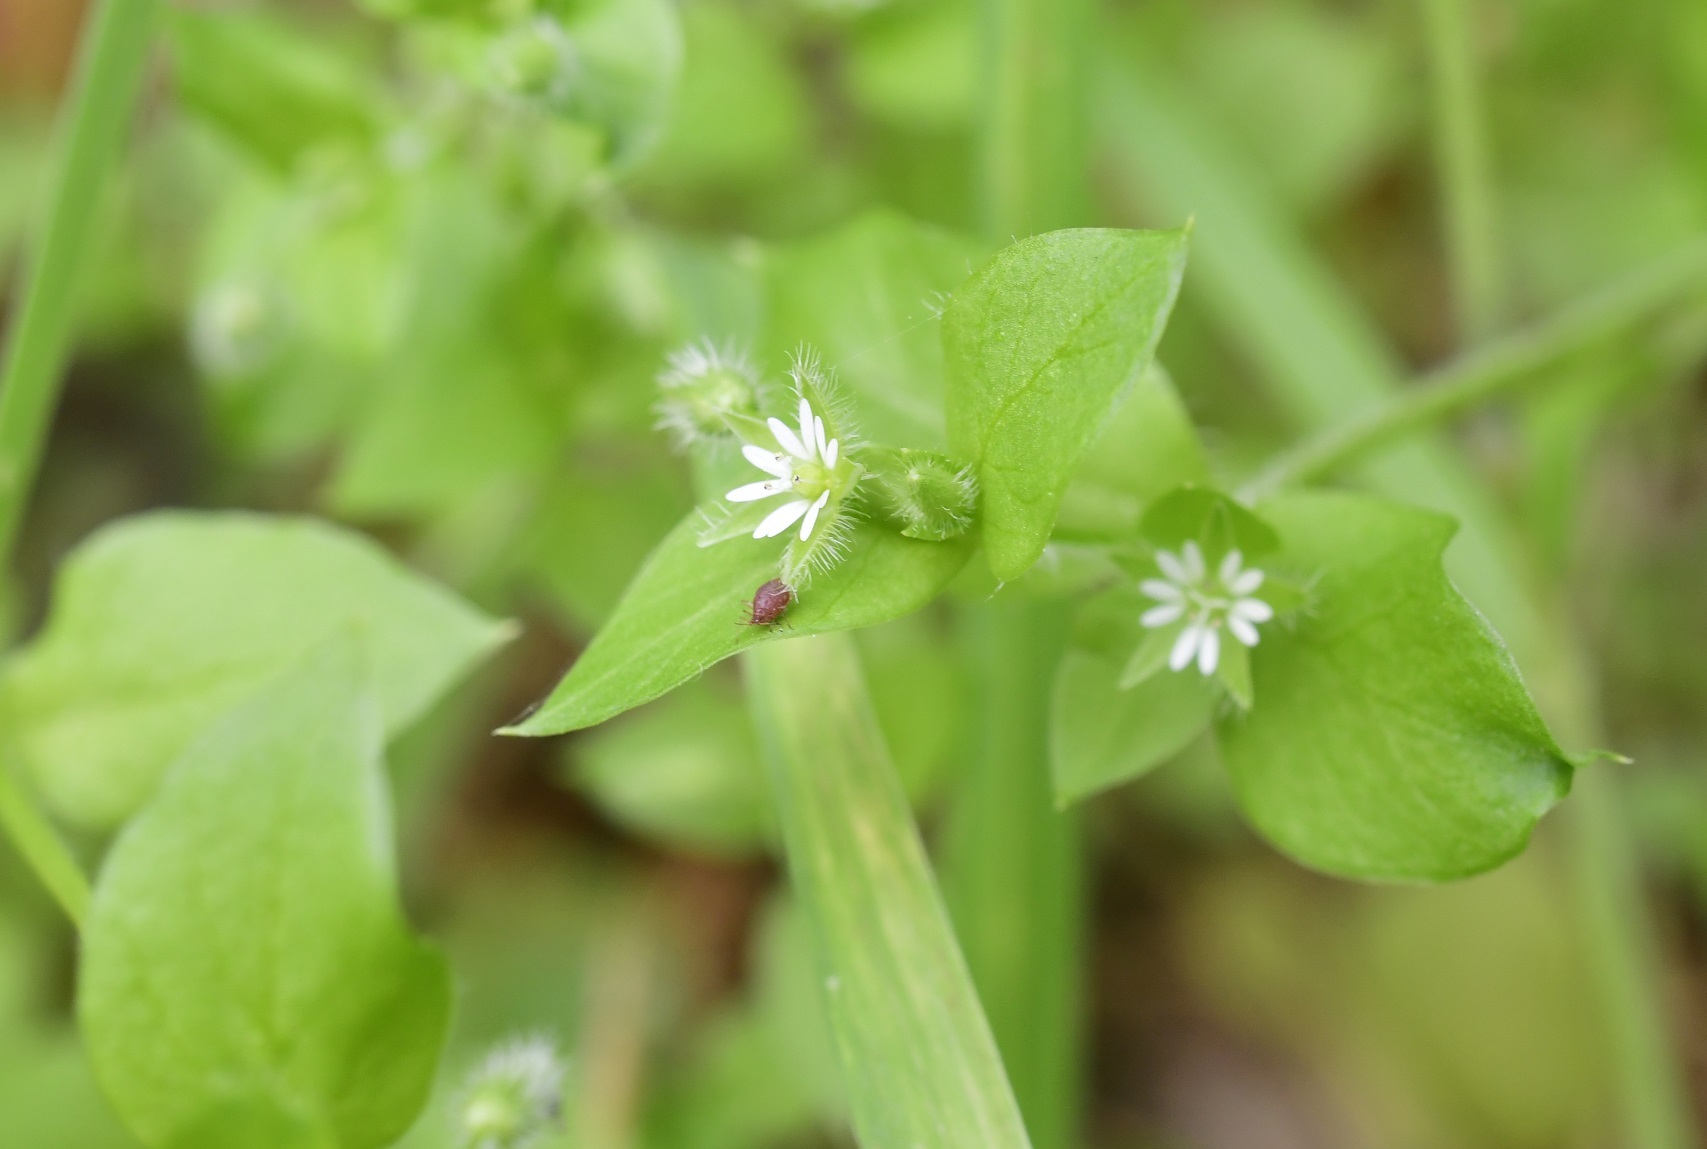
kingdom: Plantae
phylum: Tracheophyta
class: Magnoliopsida
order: Caryophyllales
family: Caryophyllaceae
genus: Stellaria
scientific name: Stellaria cuspidata
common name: Mexican chickweed
